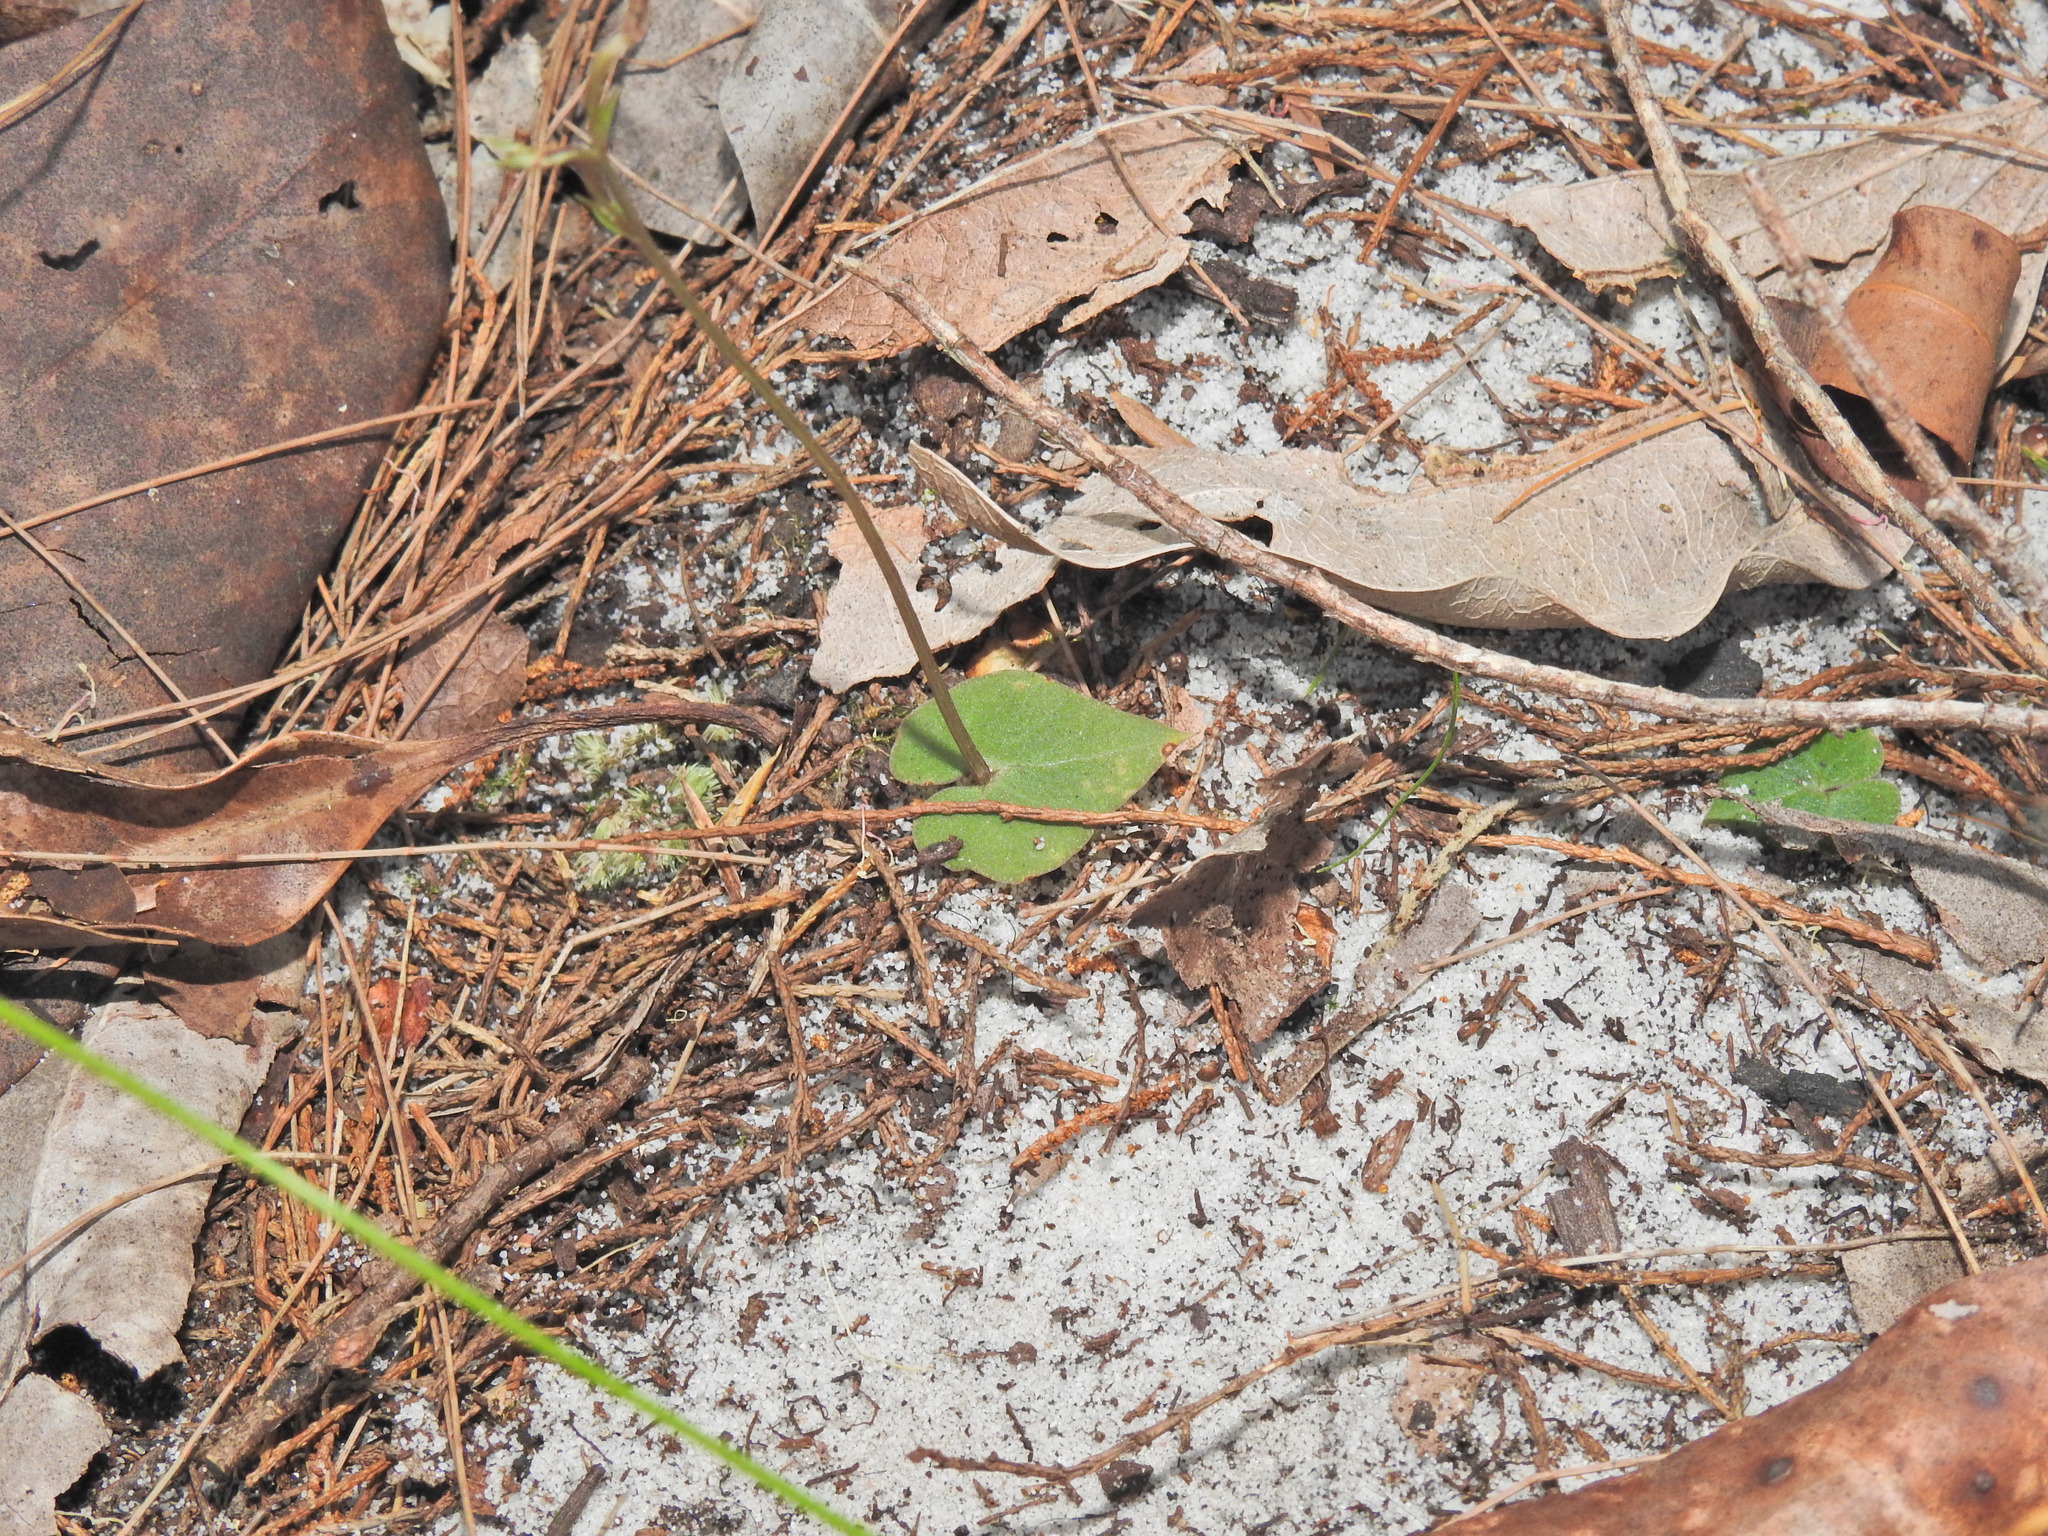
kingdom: Plantae
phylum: Tracheophyta
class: Liliopsida
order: Asparagales
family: Orchidaceae
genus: Acianthus
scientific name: Acianthus fornicatus
